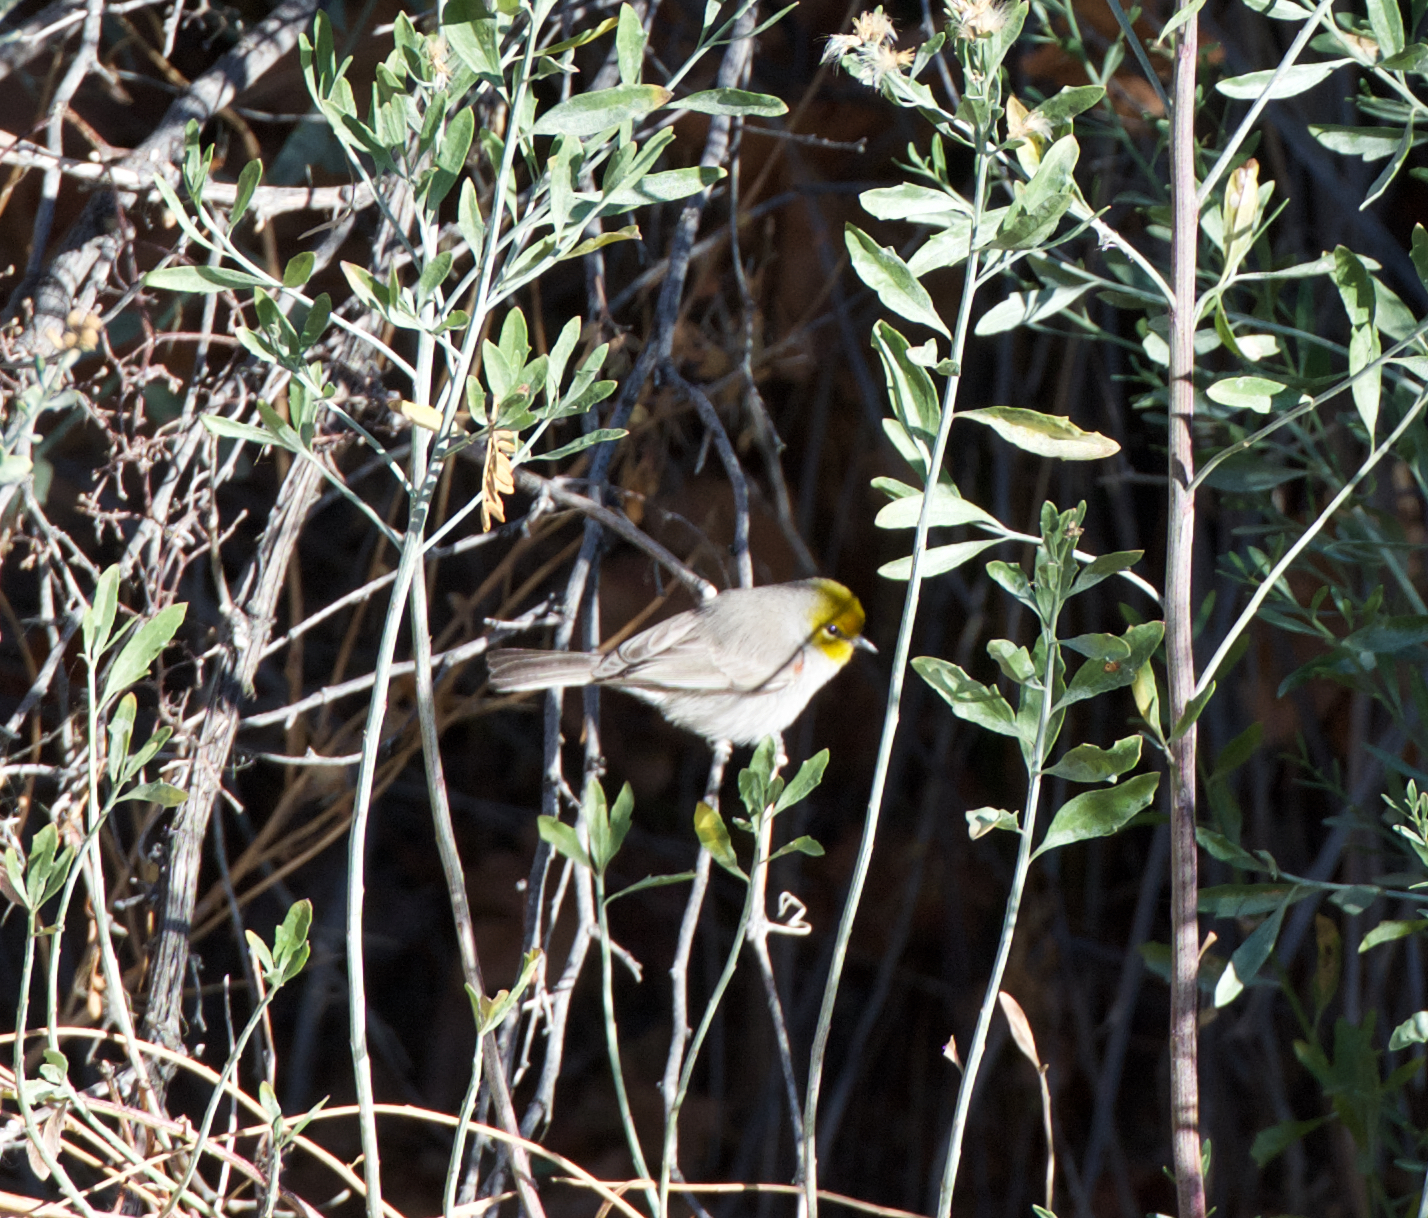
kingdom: Animalia
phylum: Chordata
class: Aves
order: Passeriformes
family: Remizidae
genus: Auriparus
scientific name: Auriparus flaviceps
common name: Verdin
